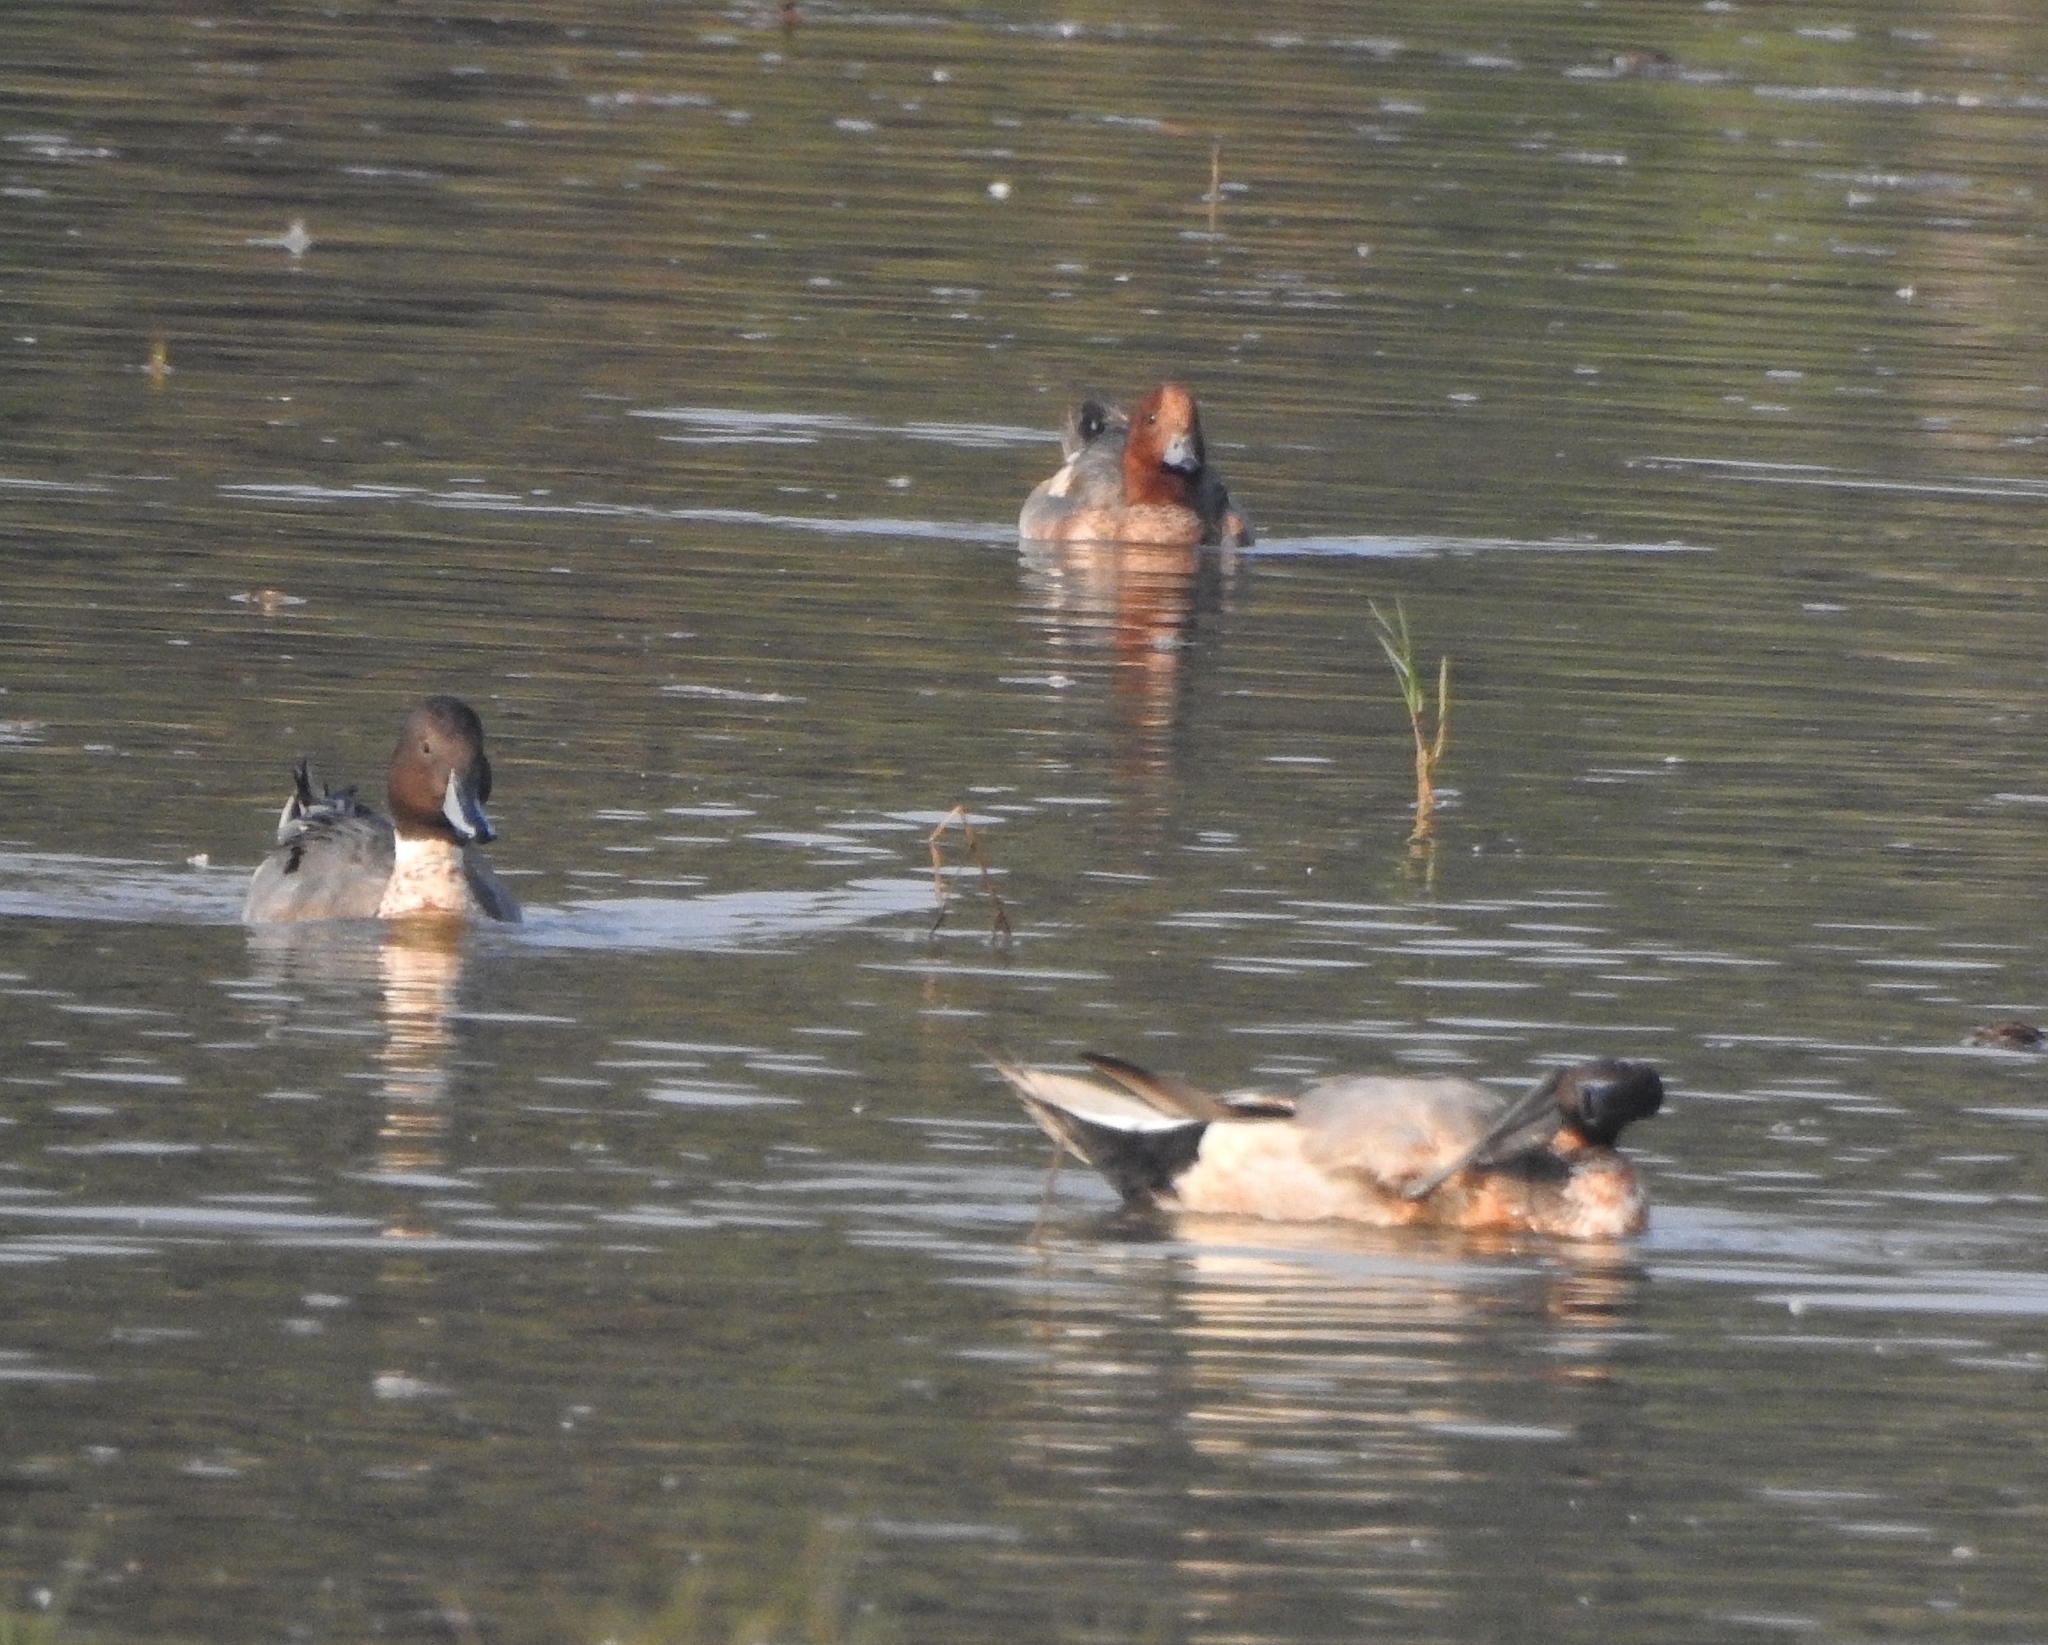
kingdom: Animalia
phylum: Chordata
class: Aves
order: Anseriformes
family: Anatidae
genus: Mareca
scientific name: Mareca penelope
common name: Eurasian wigeon
